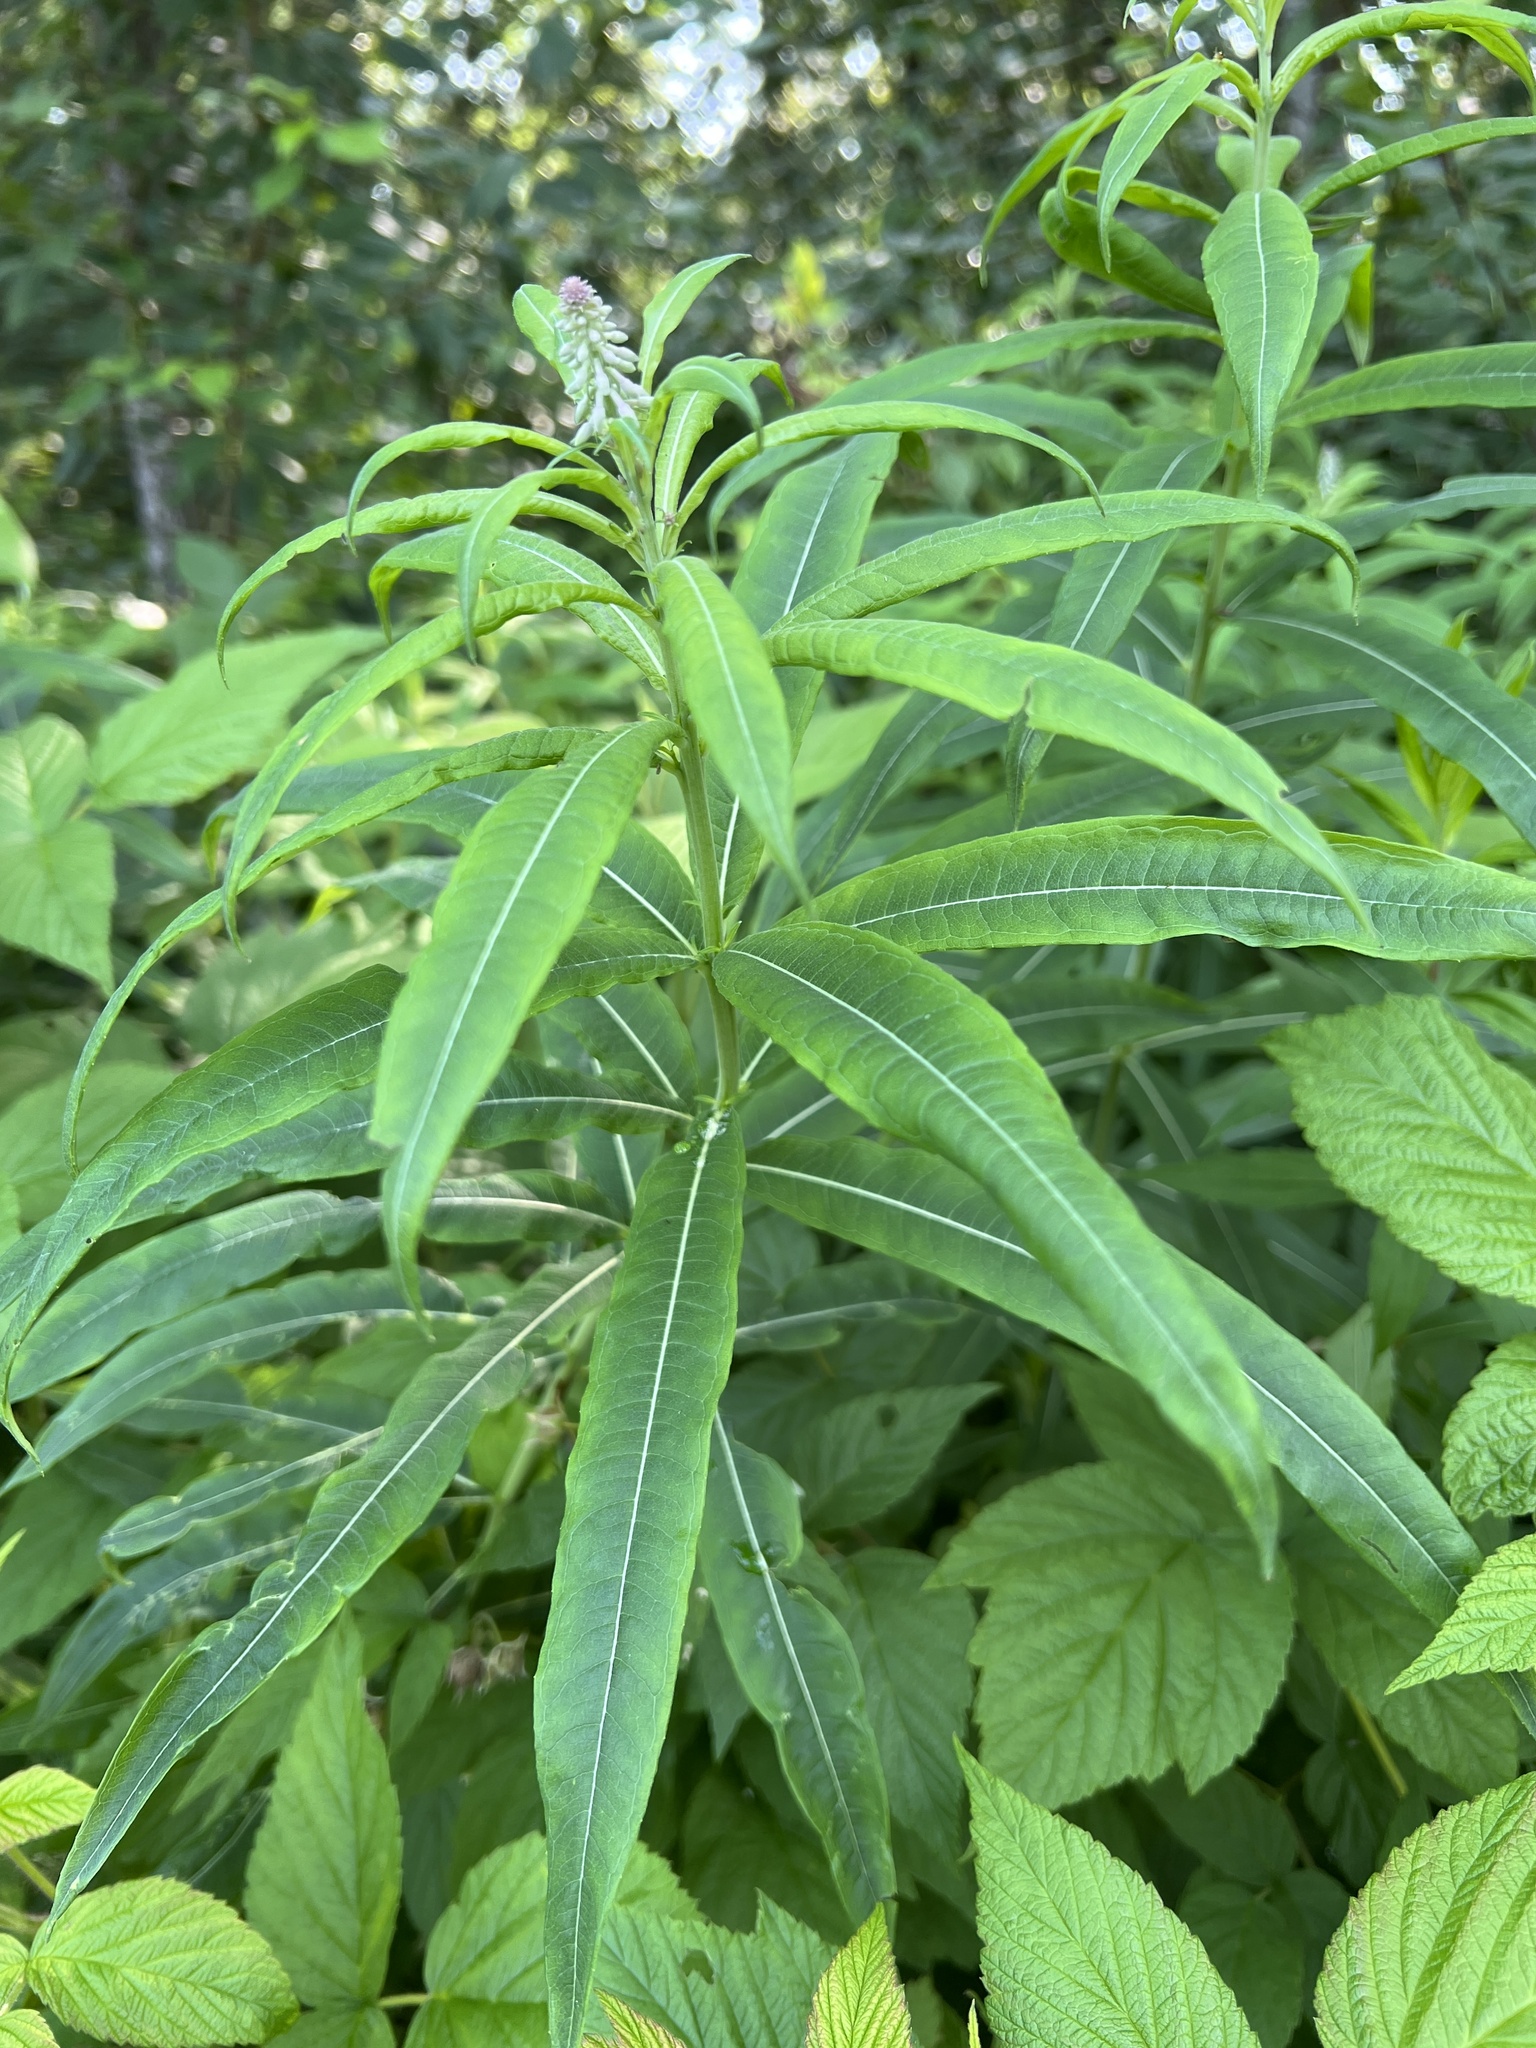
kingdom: Plantae
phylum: Tracheophyta
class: Magnoliopsida
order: Myrtales
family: Onagraceae
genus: Chamaenerion
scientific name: Chamaenerion angustifolium
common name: Fireweed
